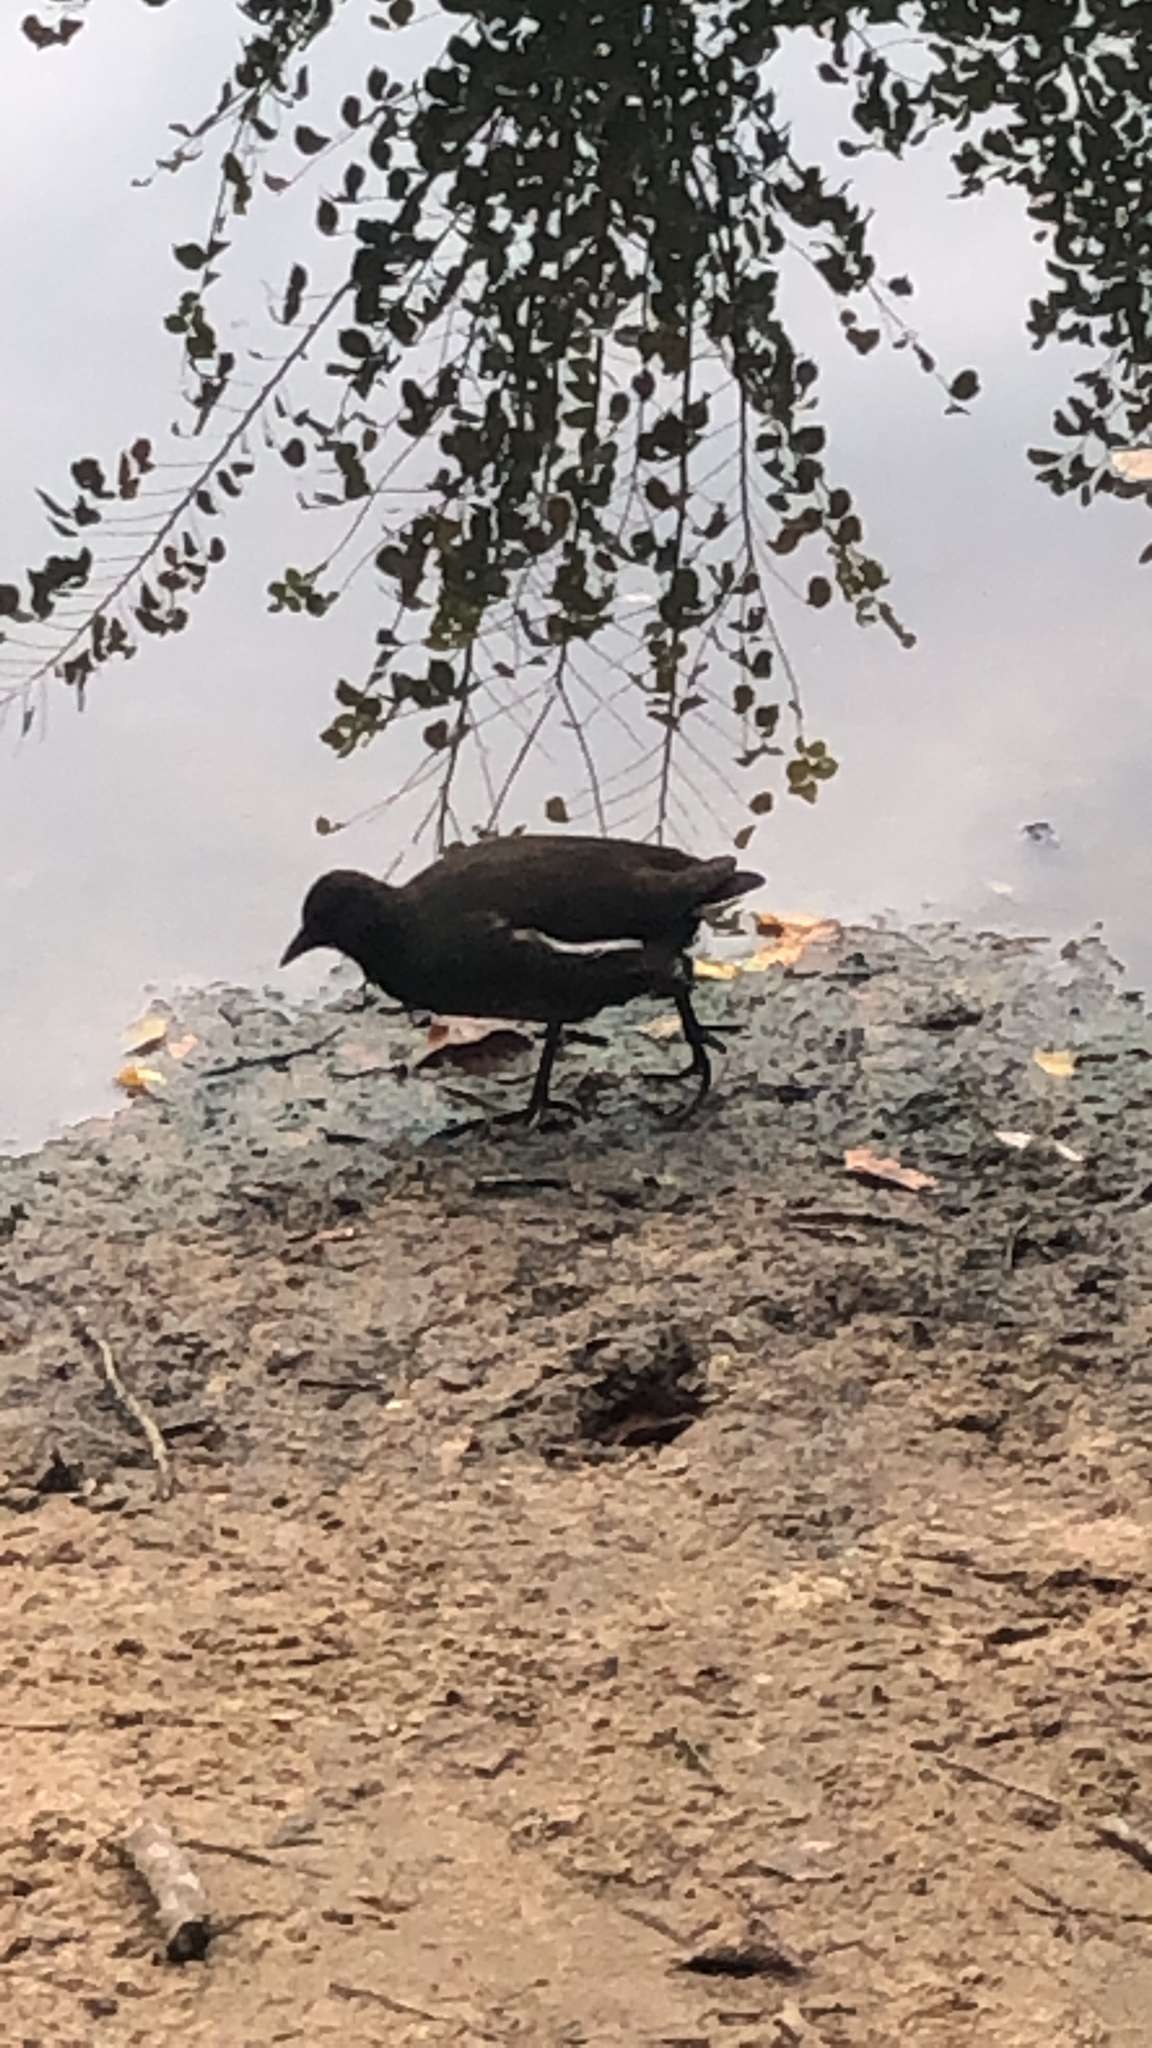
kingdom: Animalia
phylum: Chordata
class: Aves
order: Gruiformes
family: Rallidae
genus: Gallinula
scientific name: Gallinula chloropus
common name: Common moorhen
